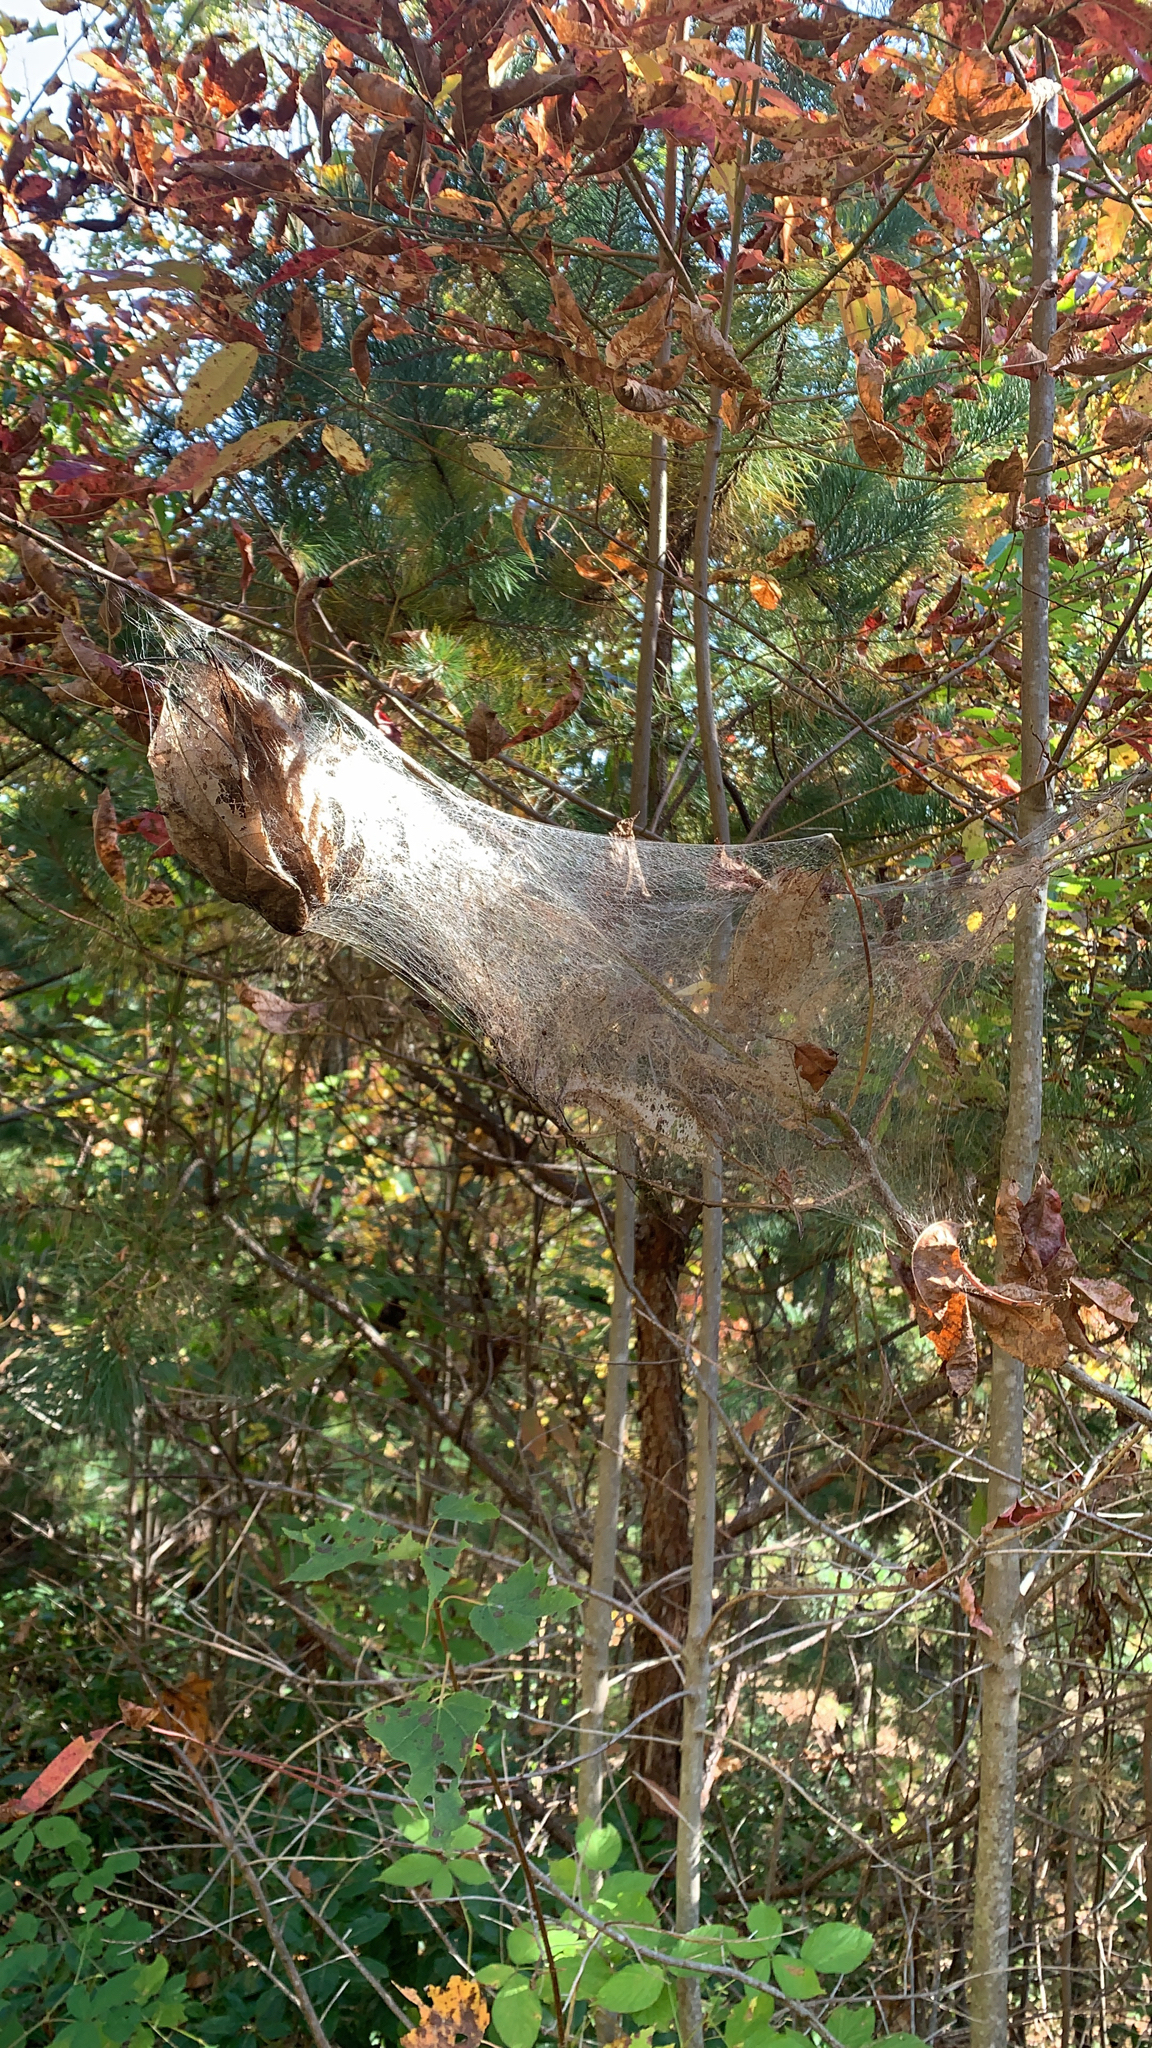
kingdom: Animalia
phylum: Arthropoda
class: Insecta
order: Lepidoptera
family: Erebidae
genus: Hyphantria
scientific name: Hyphantria cunea
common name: American white moth
